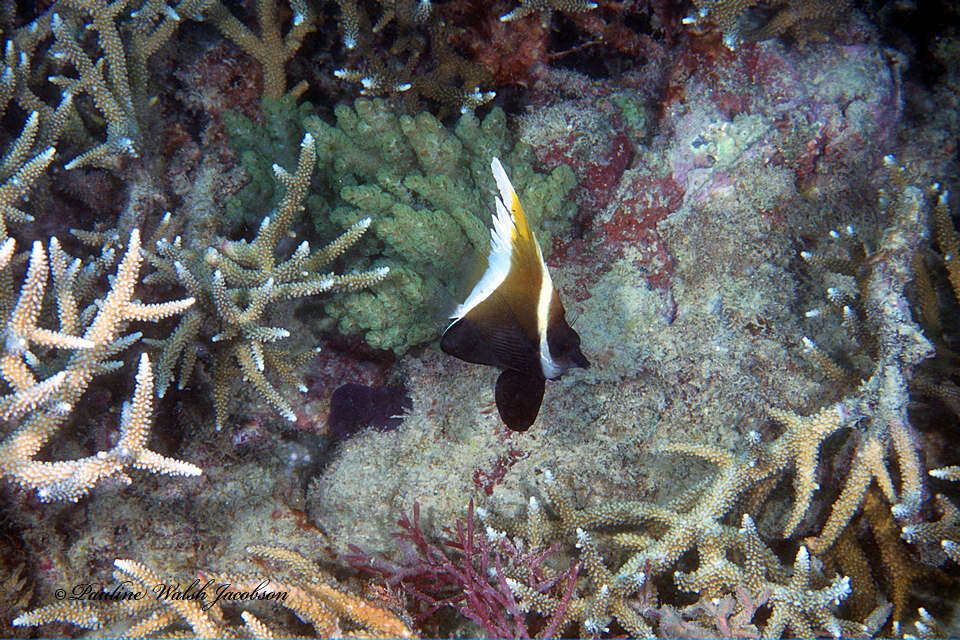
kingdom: Animalia
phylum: Chordata
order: Perciformes
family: Chaetodontidae
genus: Heniochus
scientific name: Heniochus varius
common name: Horned bannerfish
